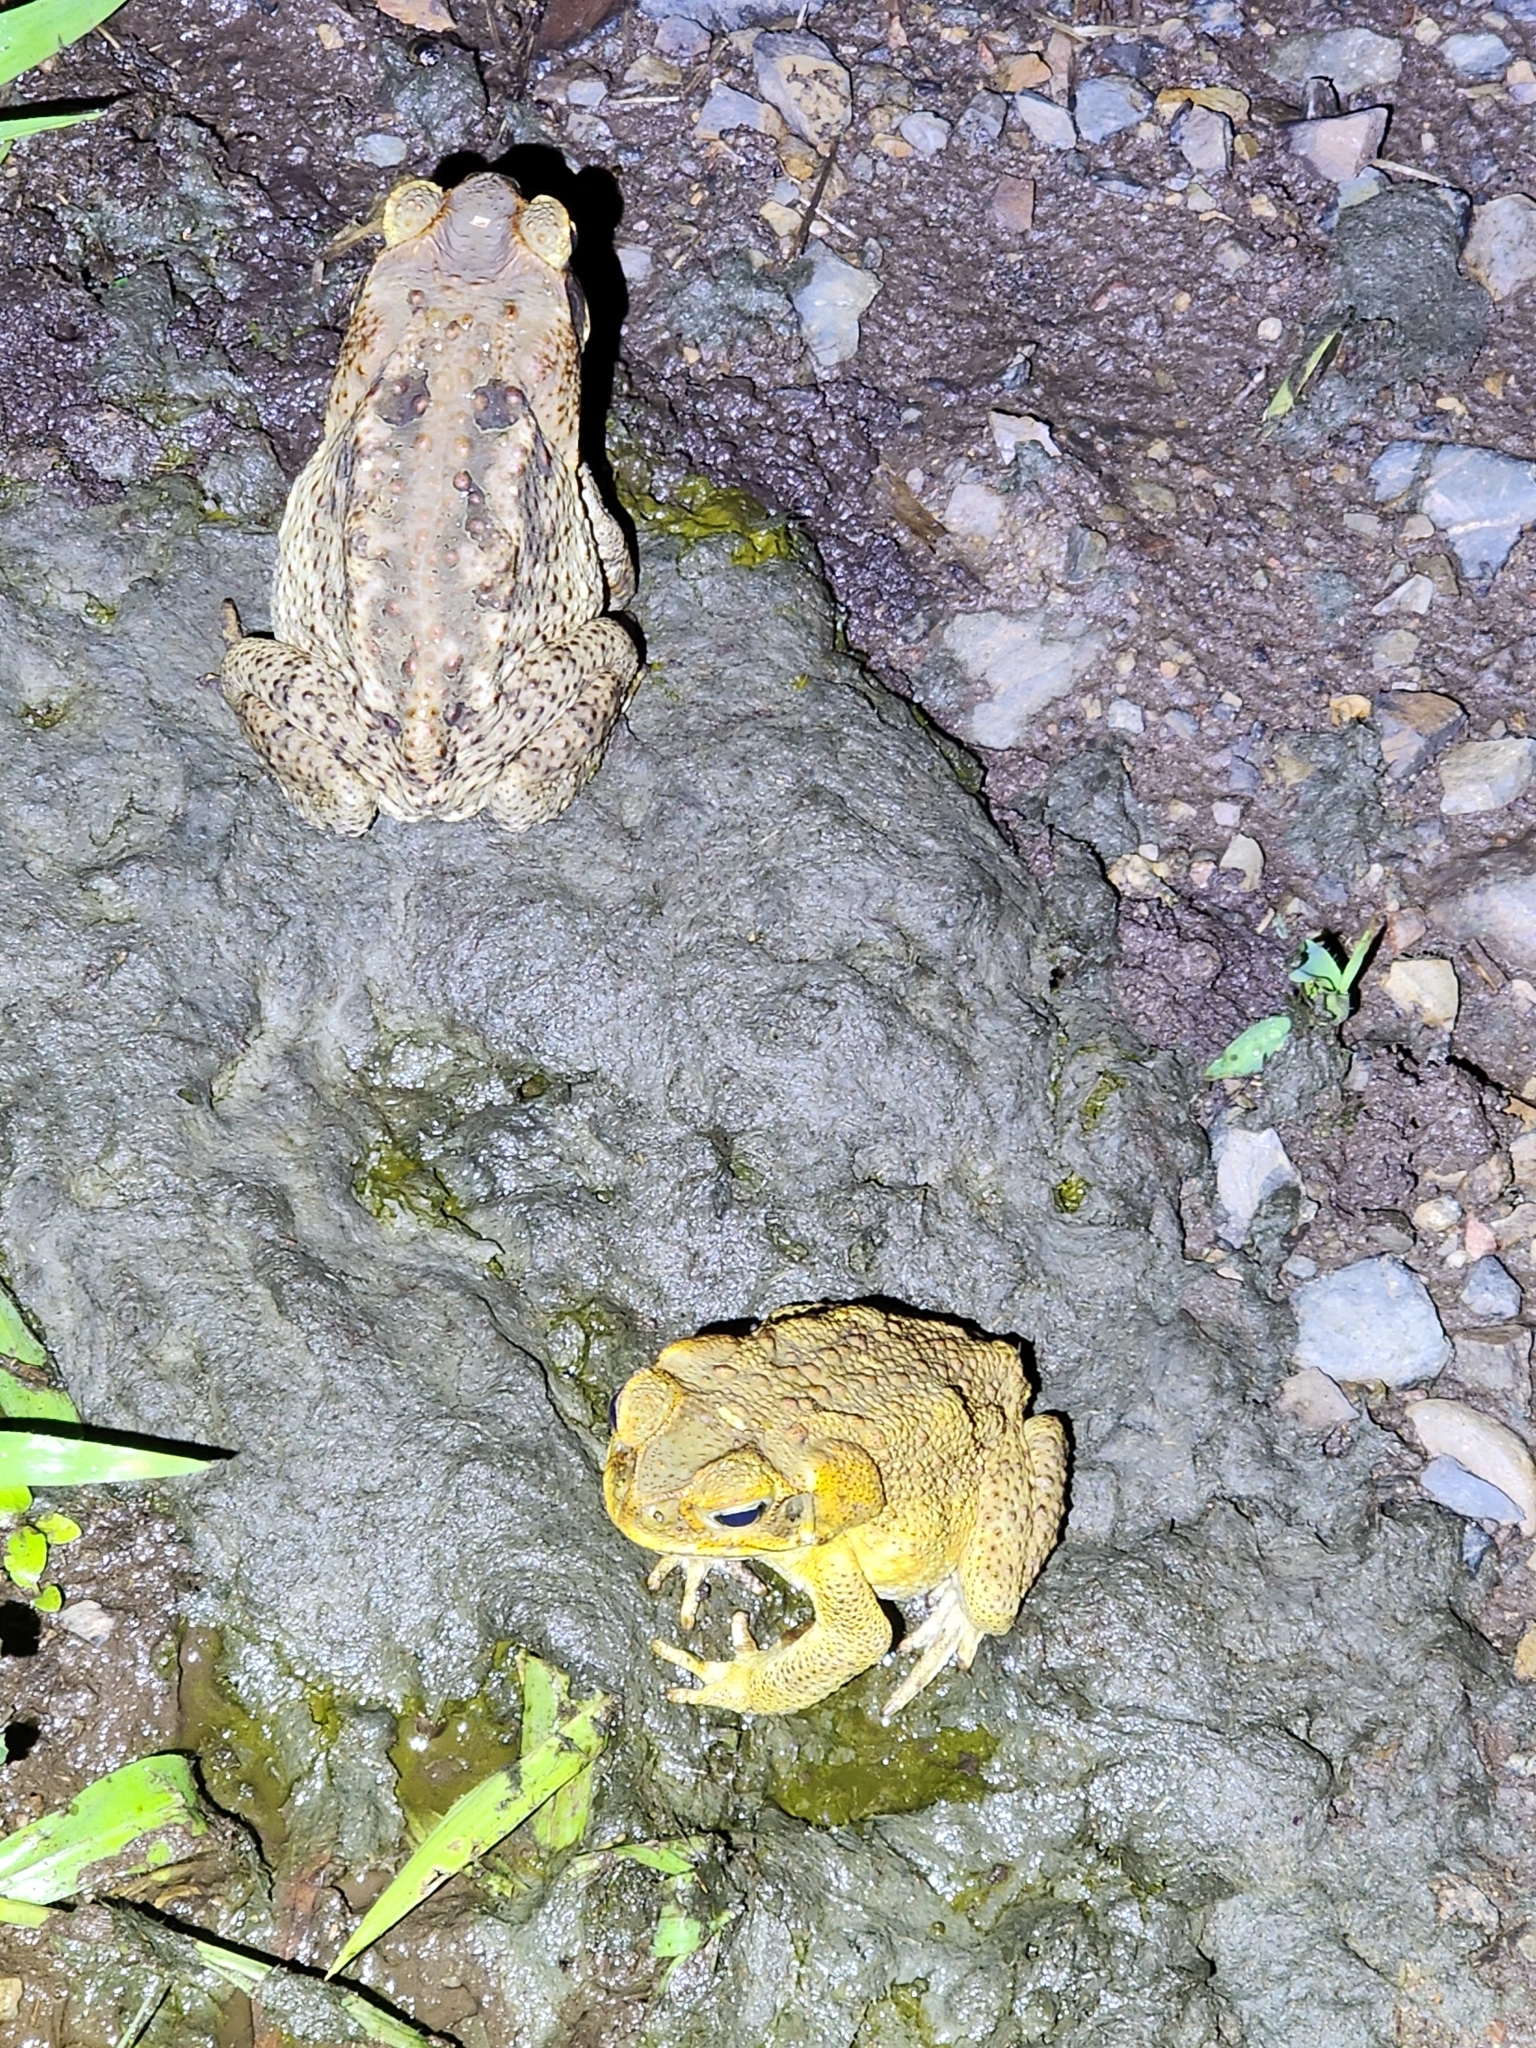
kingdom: Animalia
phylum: Chordata
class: Amphibia
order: Anura
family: Bufonidae
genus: Rhinella
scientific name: Rhinella marina
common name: Cane toad
